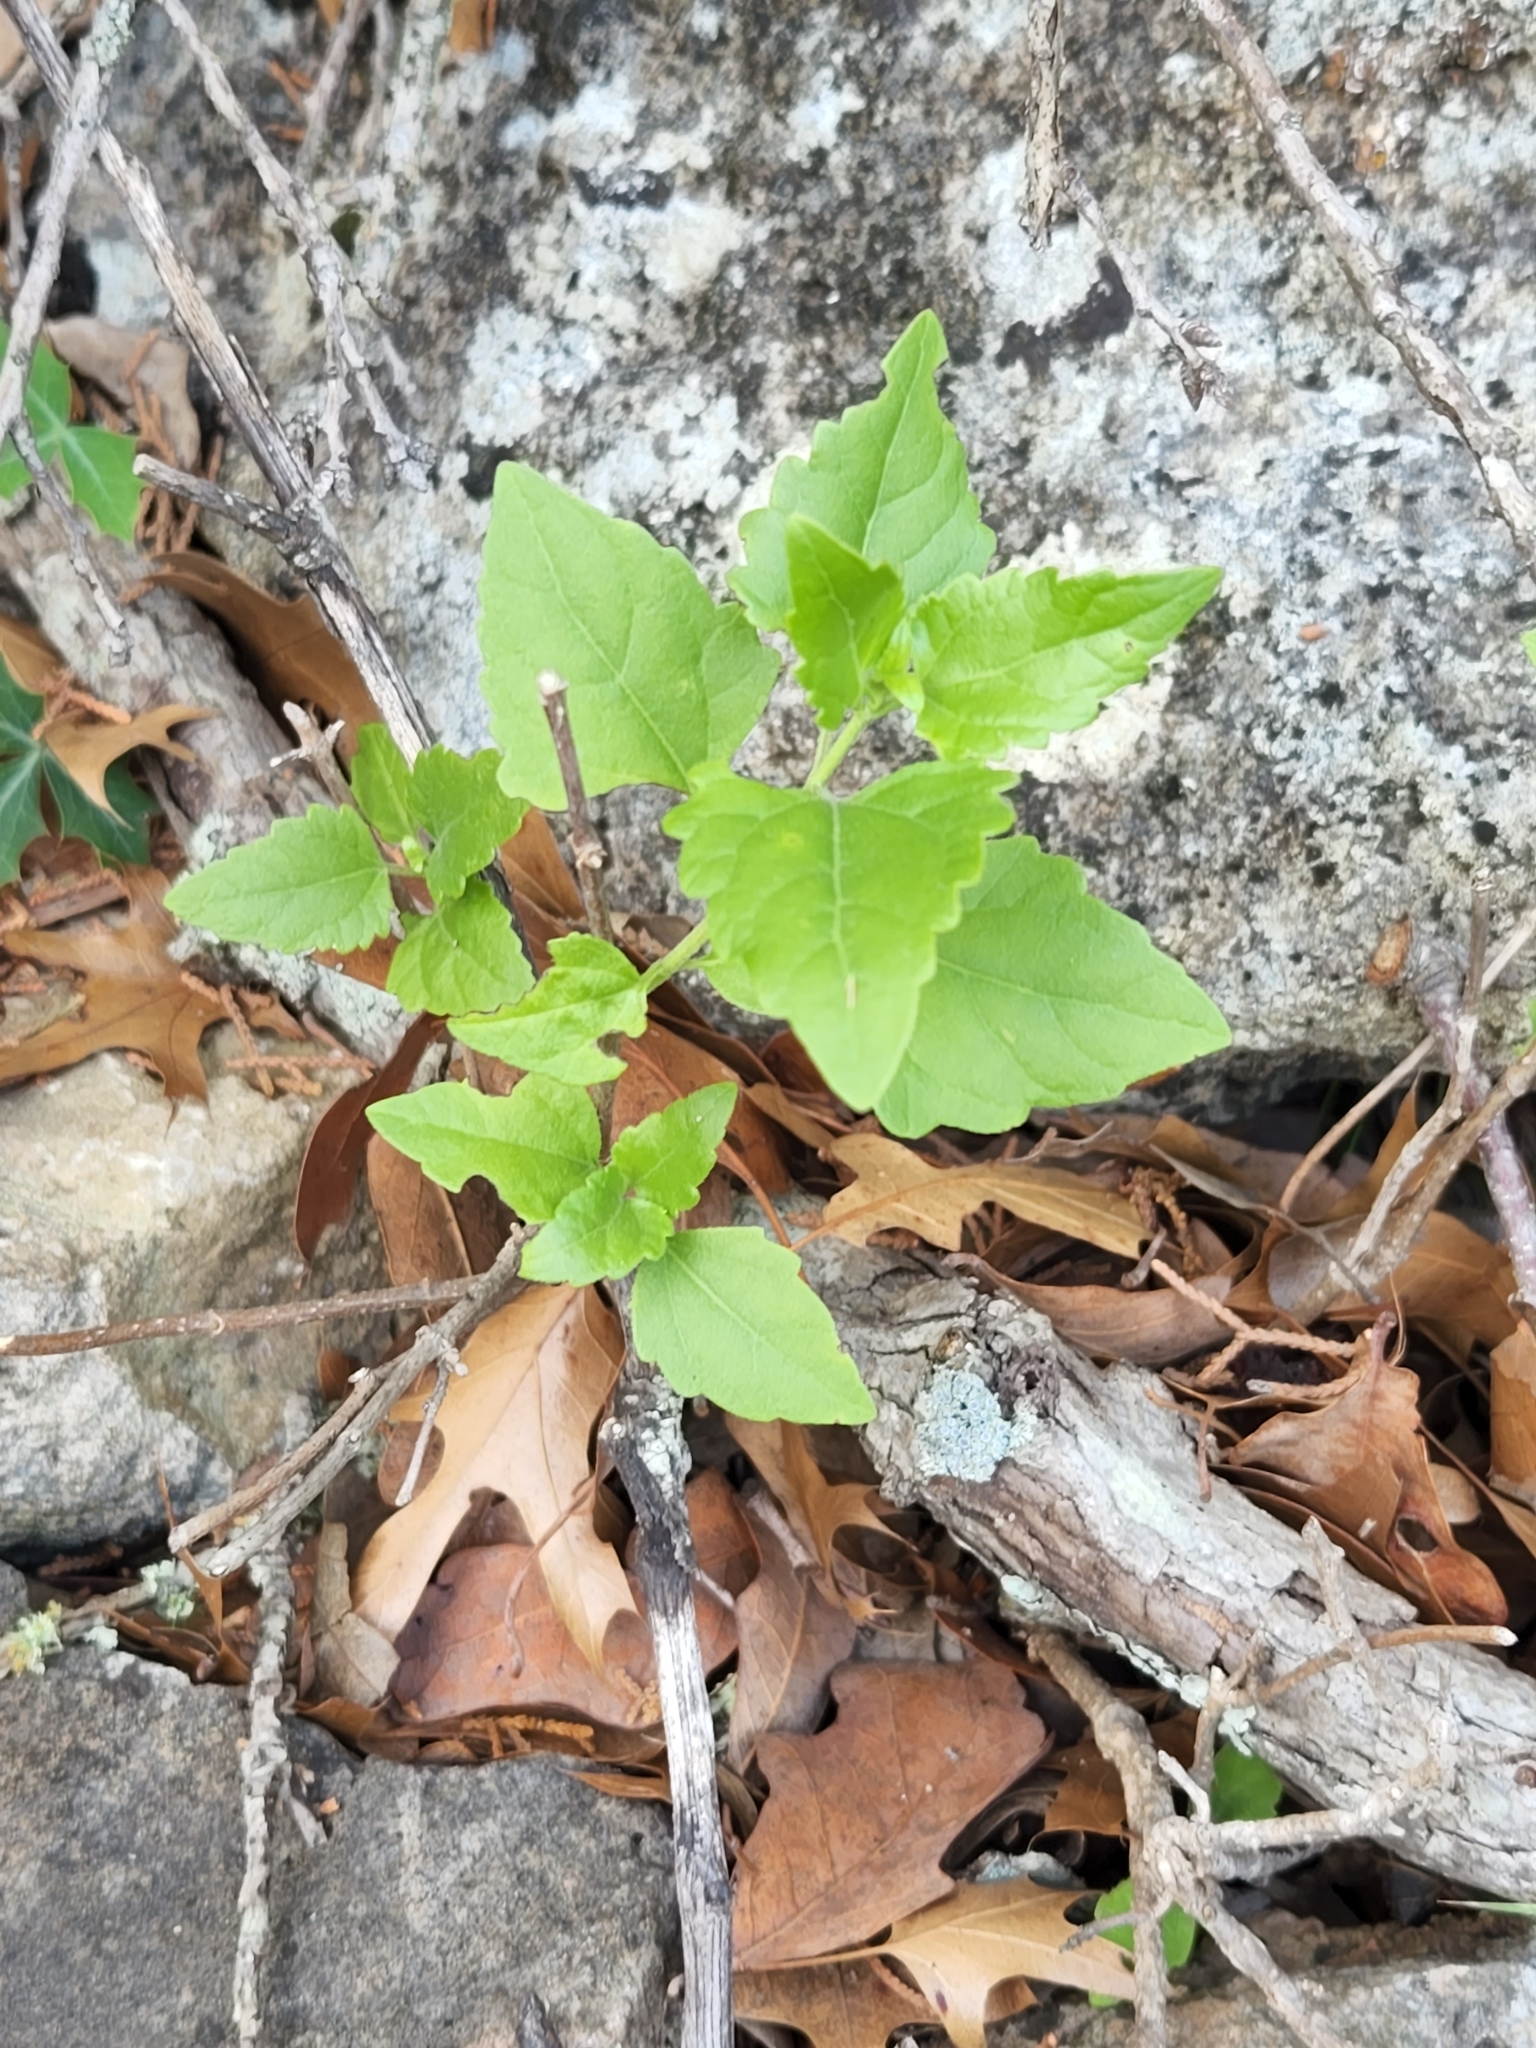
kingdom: Plantae
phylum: Tracheophyta
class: Magnoliopsida
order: Asterales
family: Asteraceae
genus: Ageratina
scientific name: Ageratina havanensis
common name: Havana snakeroot
